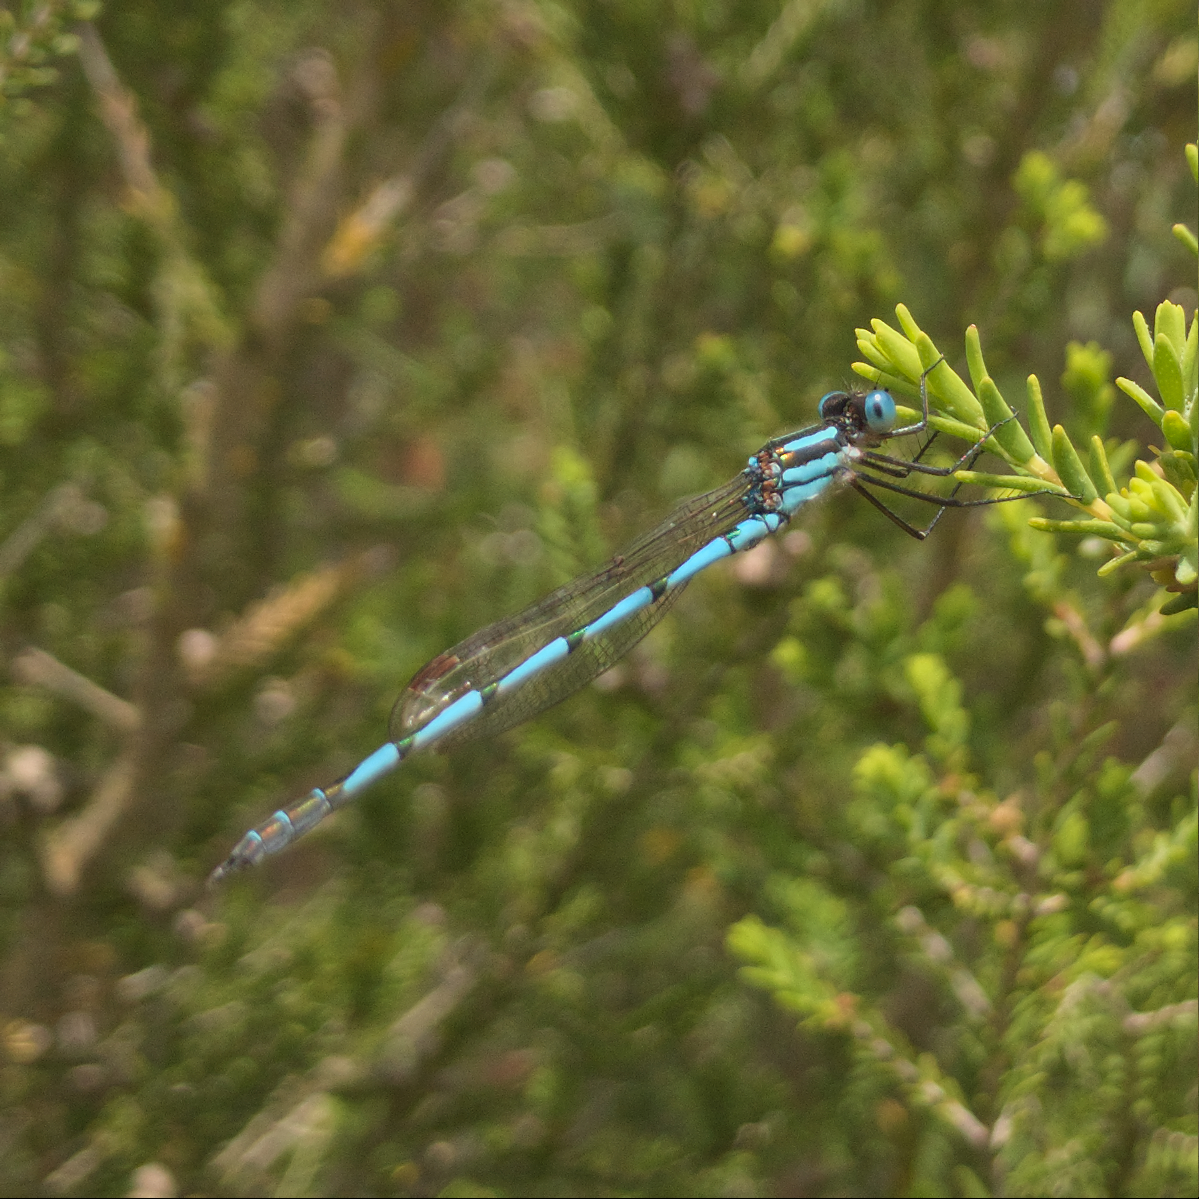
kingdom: Animalia
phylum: Arthropoda
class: Insecta
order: Odonata
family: Lestidae
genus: Austrolestes
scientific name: Austrolestes annulosus
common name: Blue ringtail
